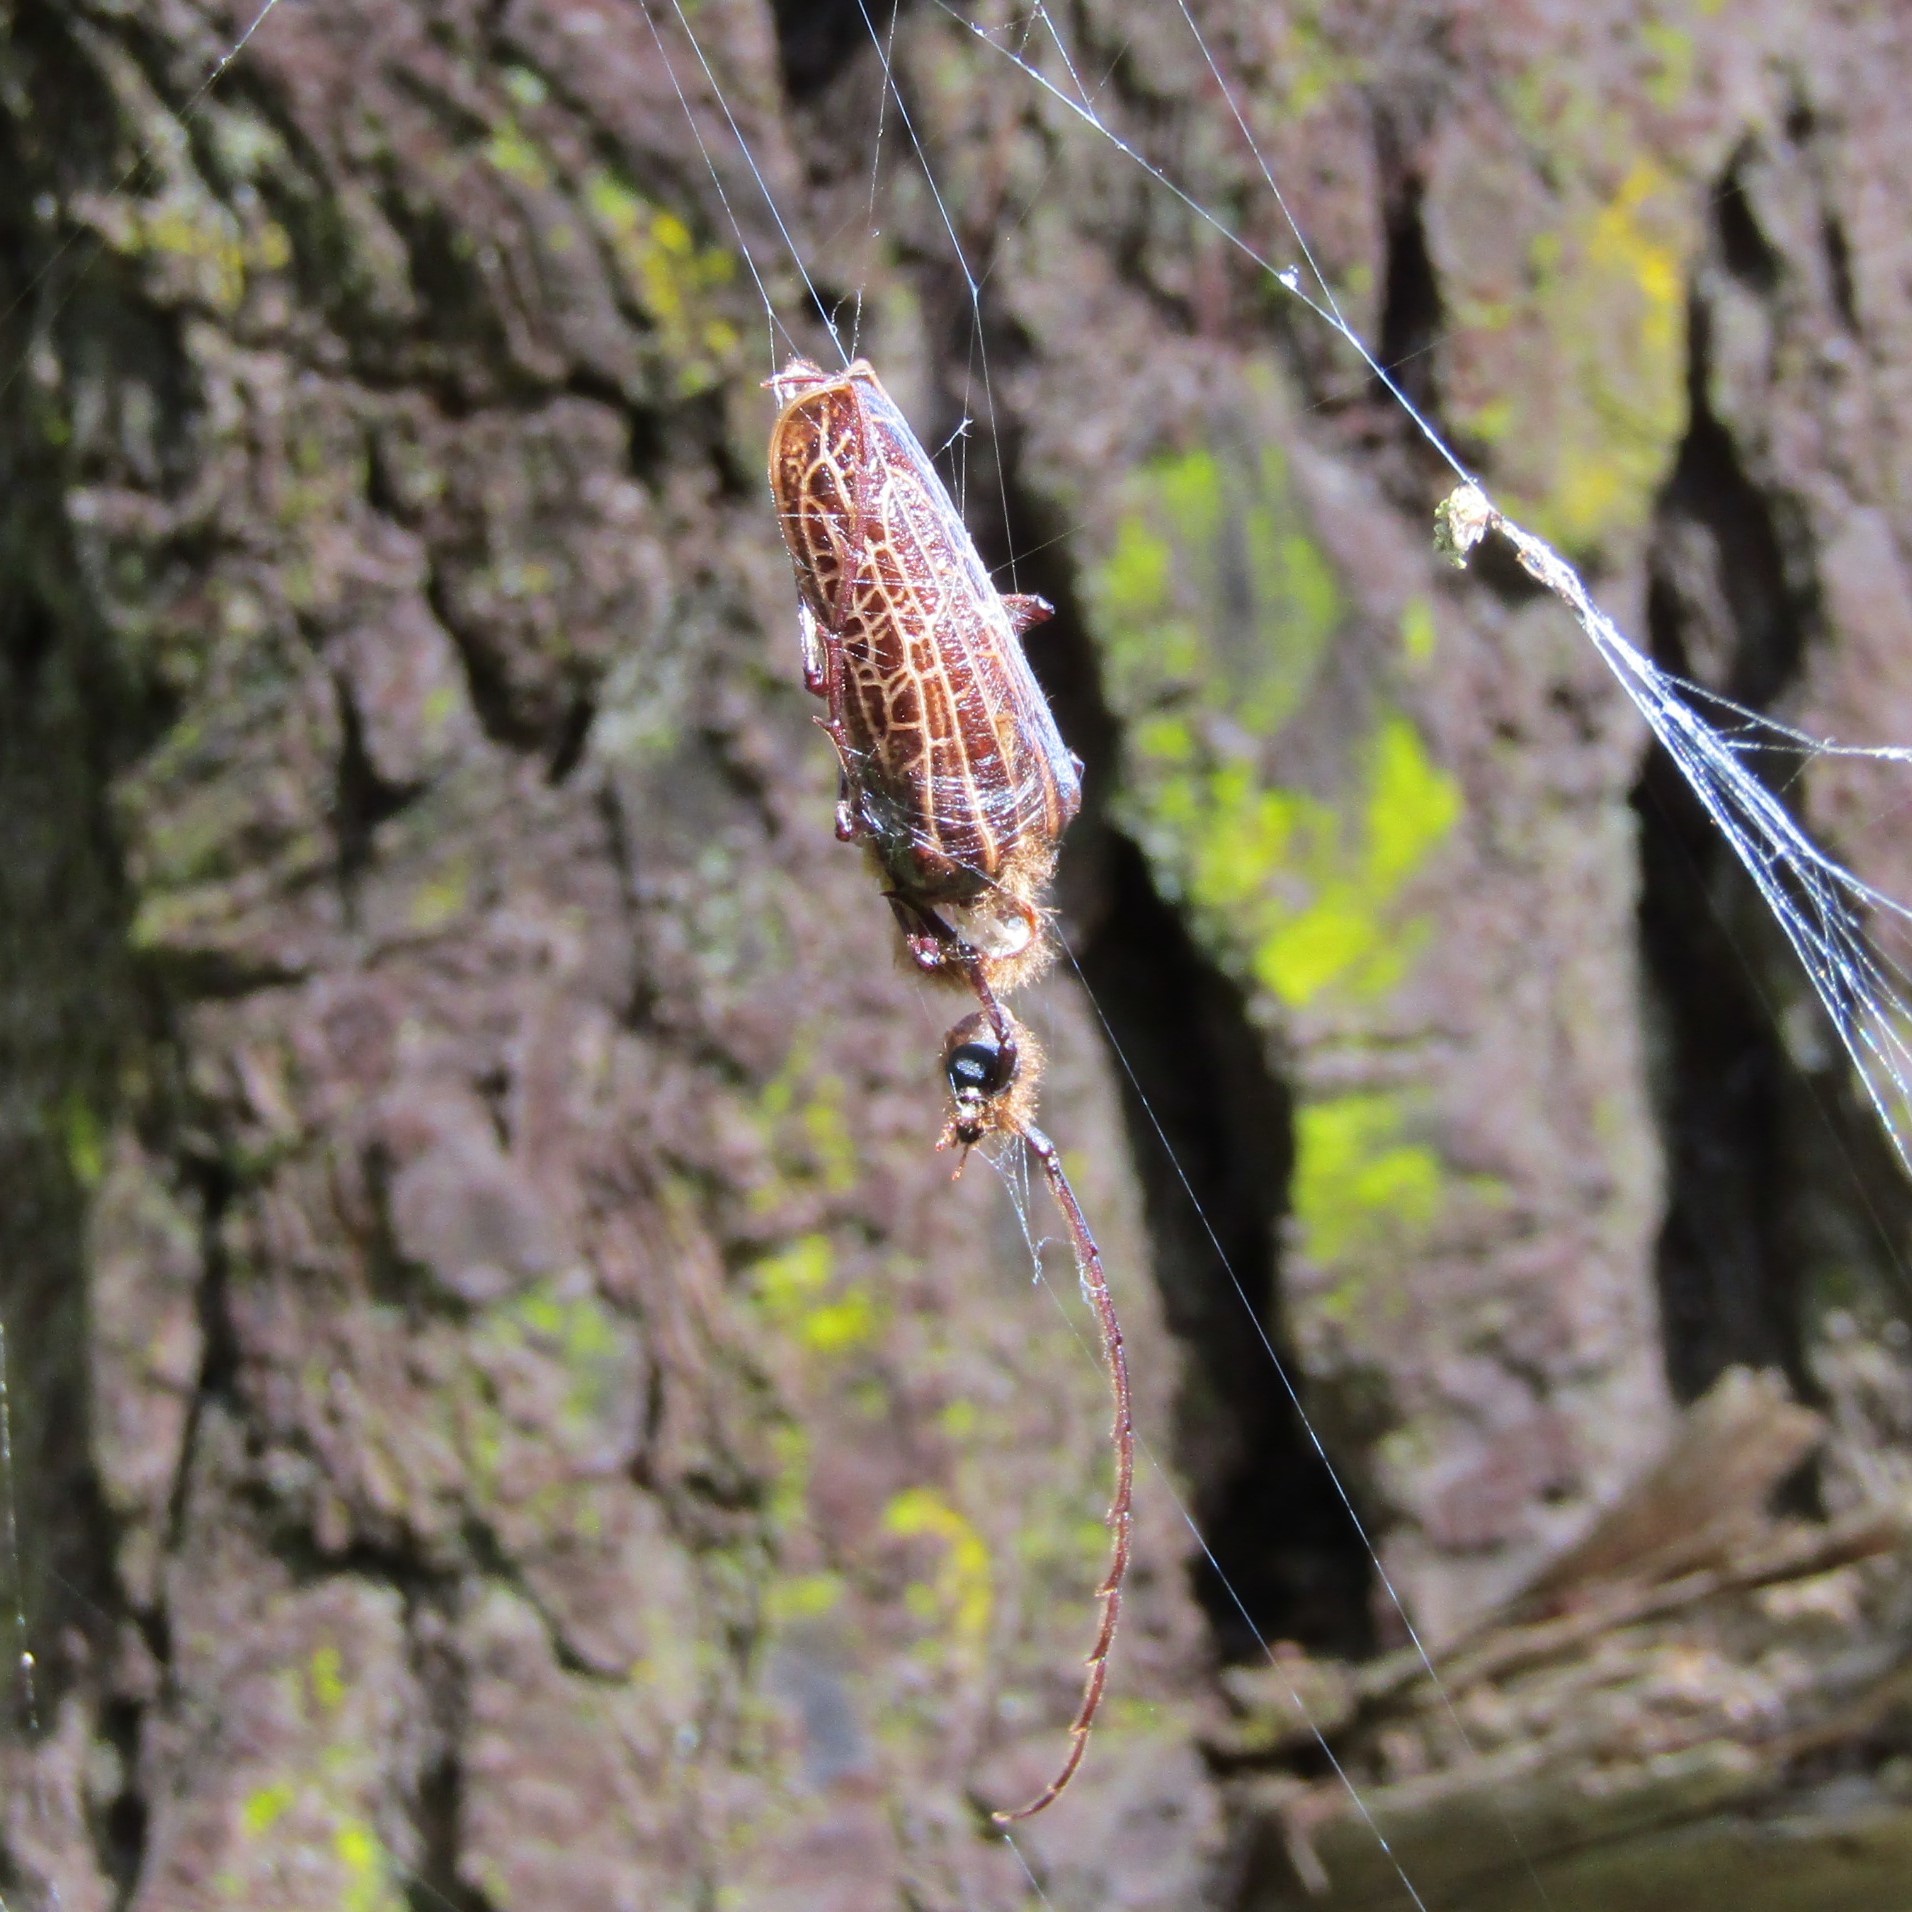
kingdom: Animalia
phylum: Arthropoda
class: Insecta
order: Coleoptera
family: Cerambycidae
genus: Prionoplus
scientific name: Prionoplus reticularis
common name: Huhu beetle
